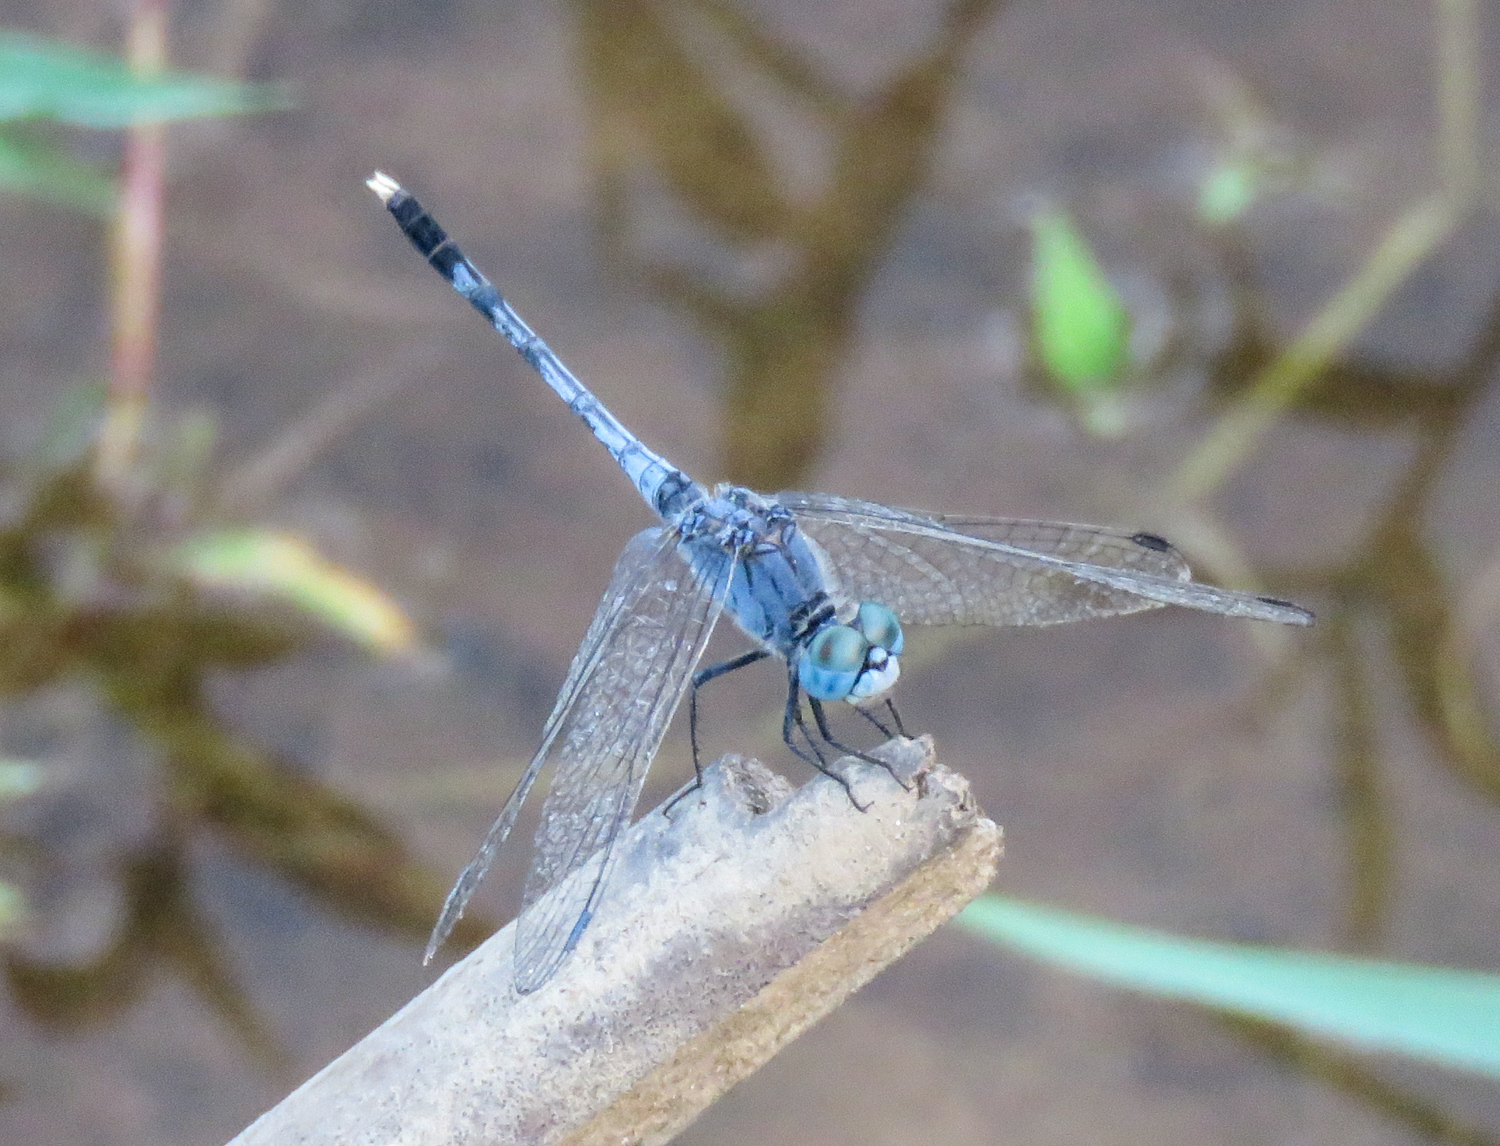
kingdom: Animalia
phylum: Arthropoda
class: Insecta
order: Odonata
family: Libellulidae
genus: Diplacodes
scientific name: Diplacodes trivialis
